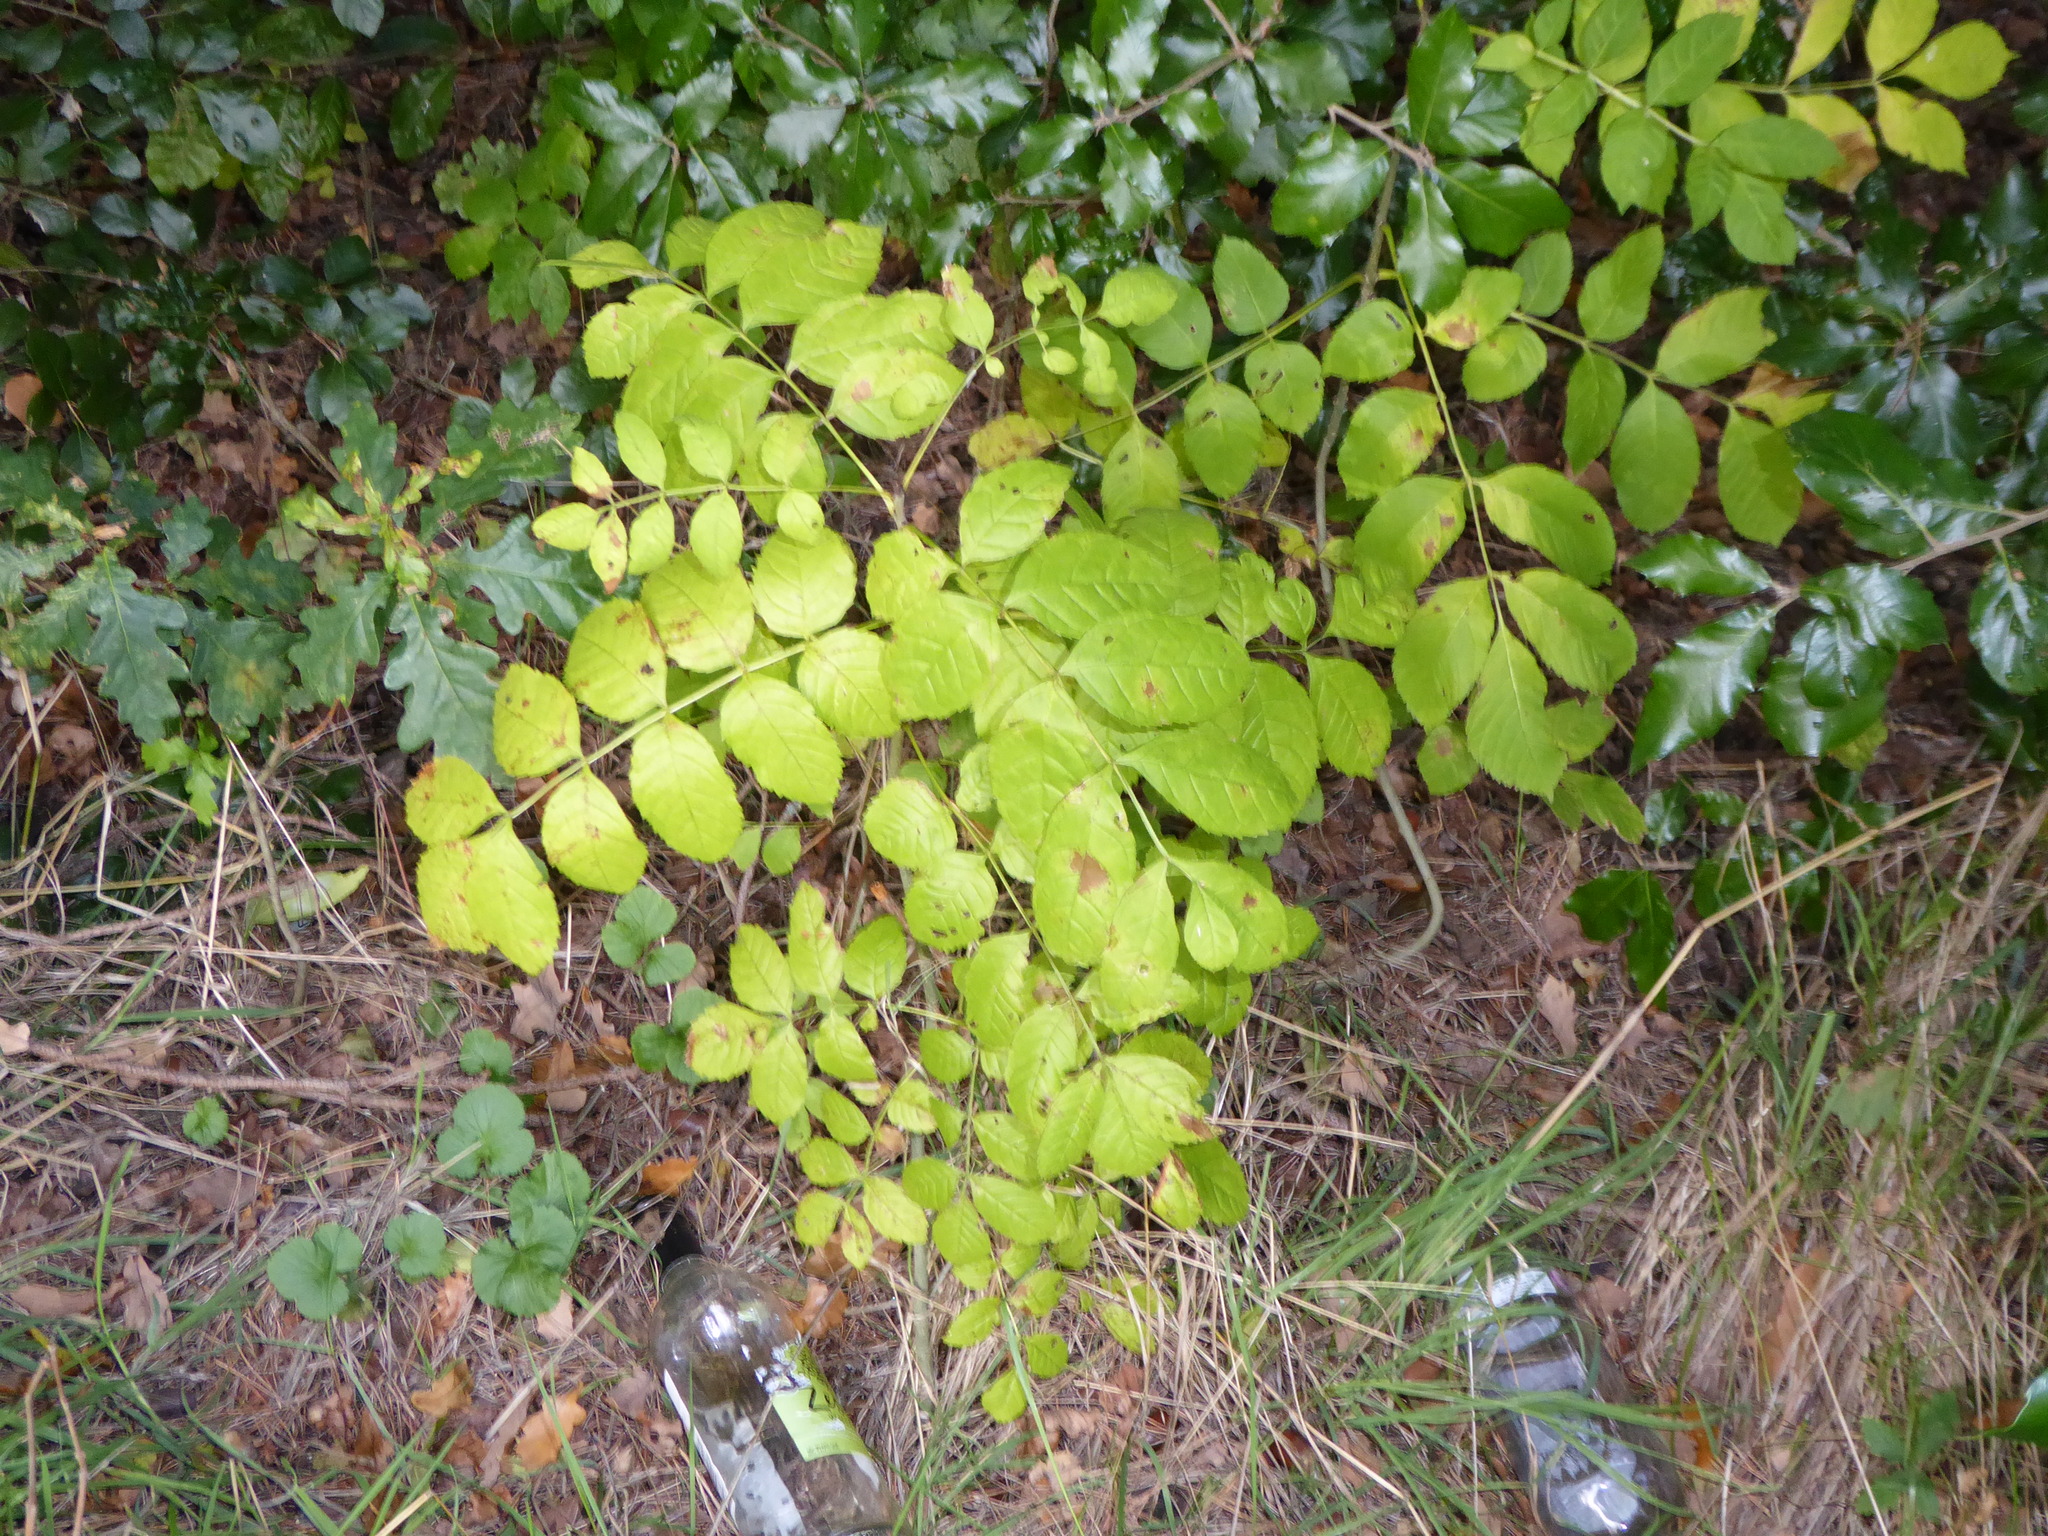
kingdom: Plantae
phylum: Tracheophyta
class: Magnoliopsida
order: Lamiales
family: Oleaceae
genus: Fraxinus
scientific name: Fraxinus excelsior
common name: European ash
